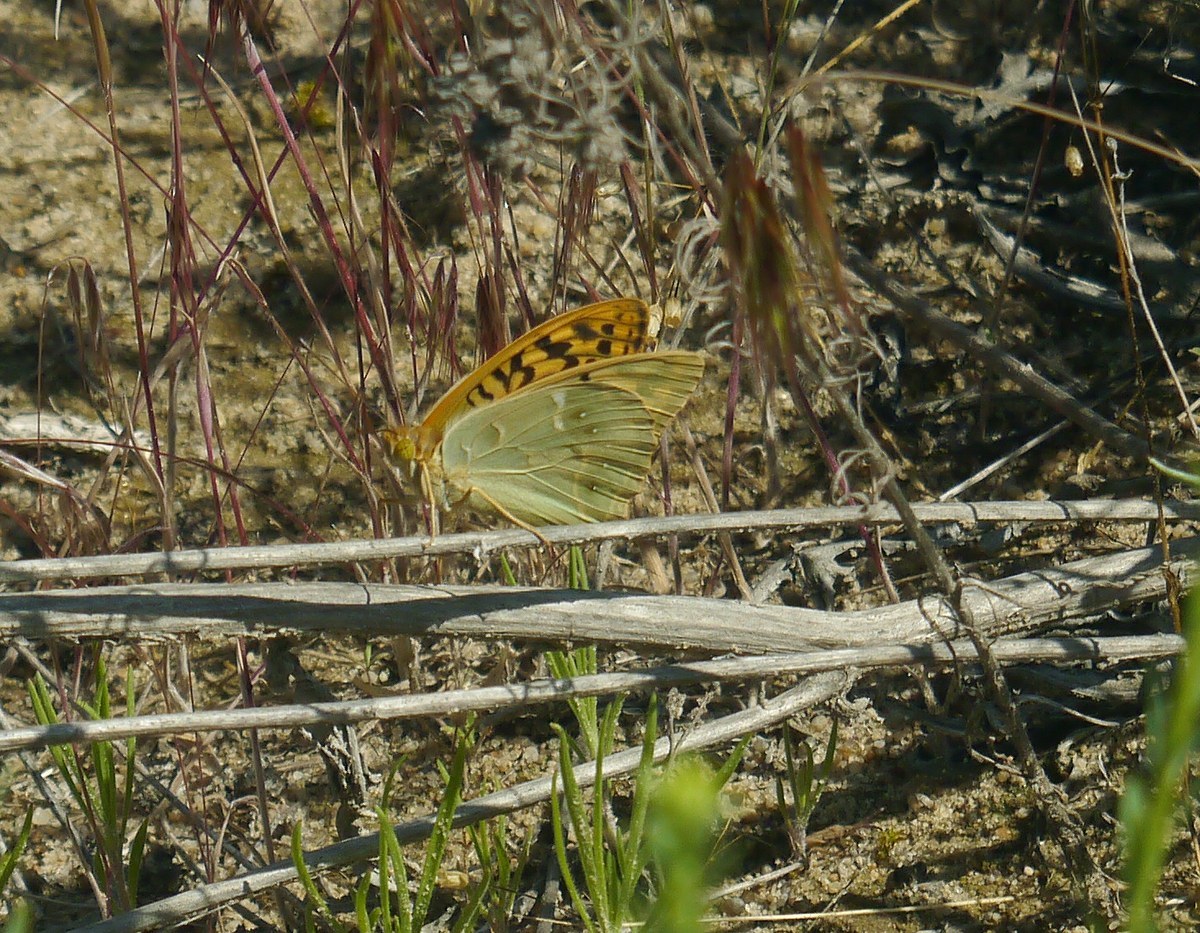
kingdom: Animalia
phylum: Arthropoda
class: Insecta
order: Lepidoptera
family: Nymphalidae
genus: Damora
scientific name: Damora pandora
